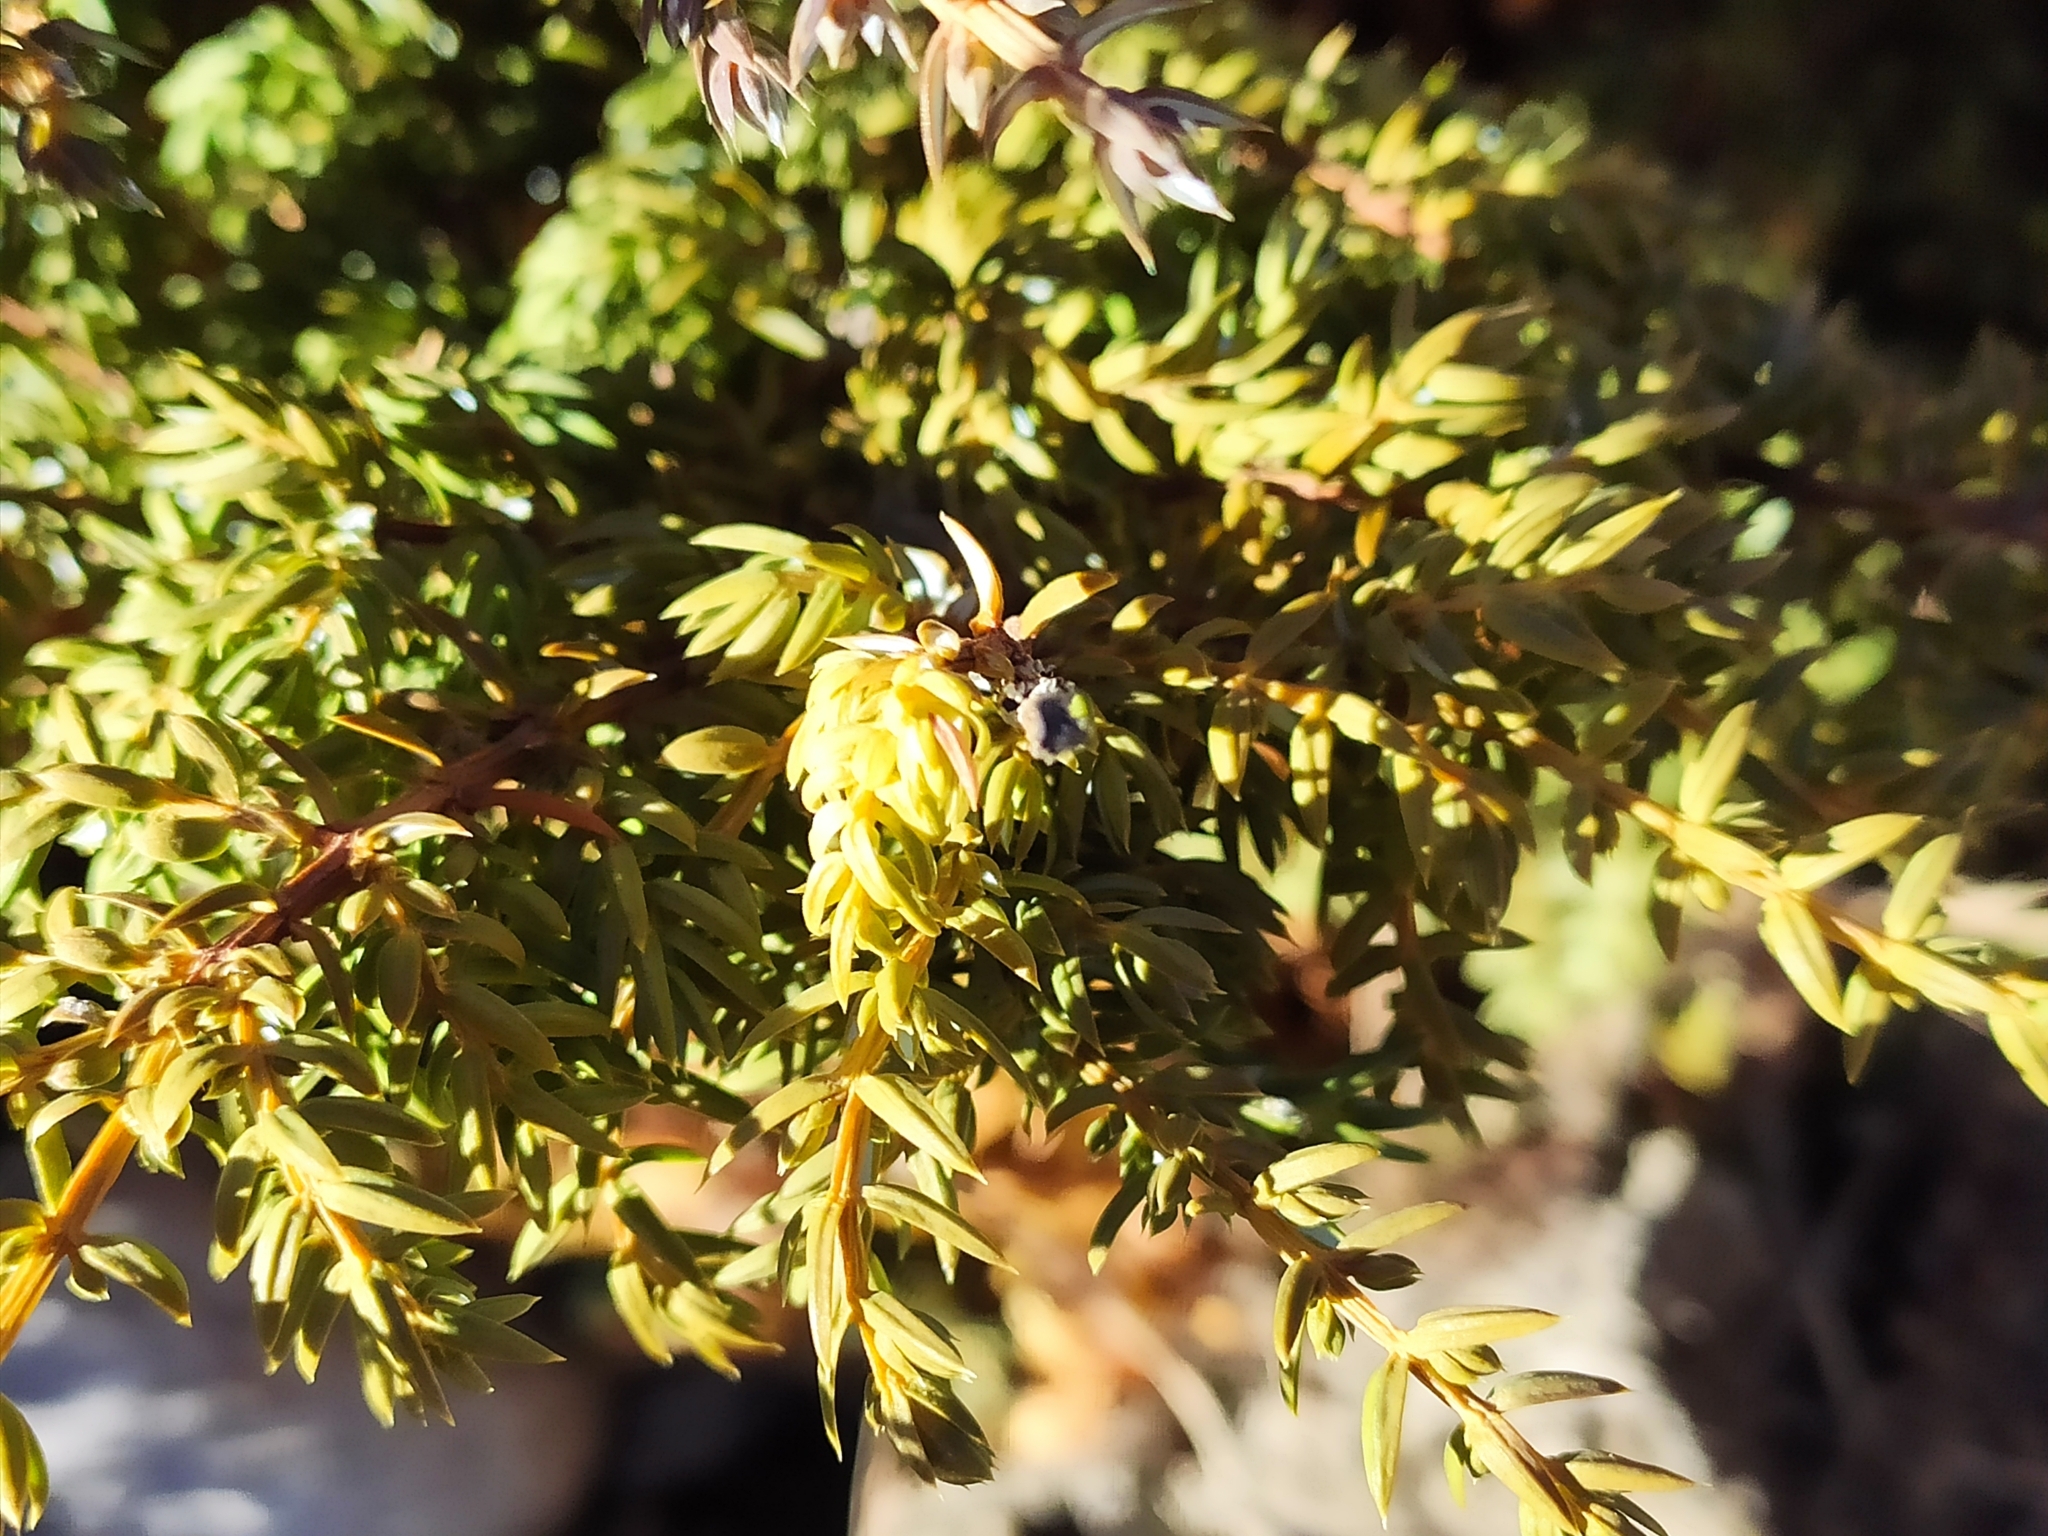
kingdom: Plantae
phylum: Tracheophyta
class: Pinopsida
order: Pinales
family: Cupressaceae
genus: Juniperus
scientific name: Juniperus communis
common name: Common juniper
